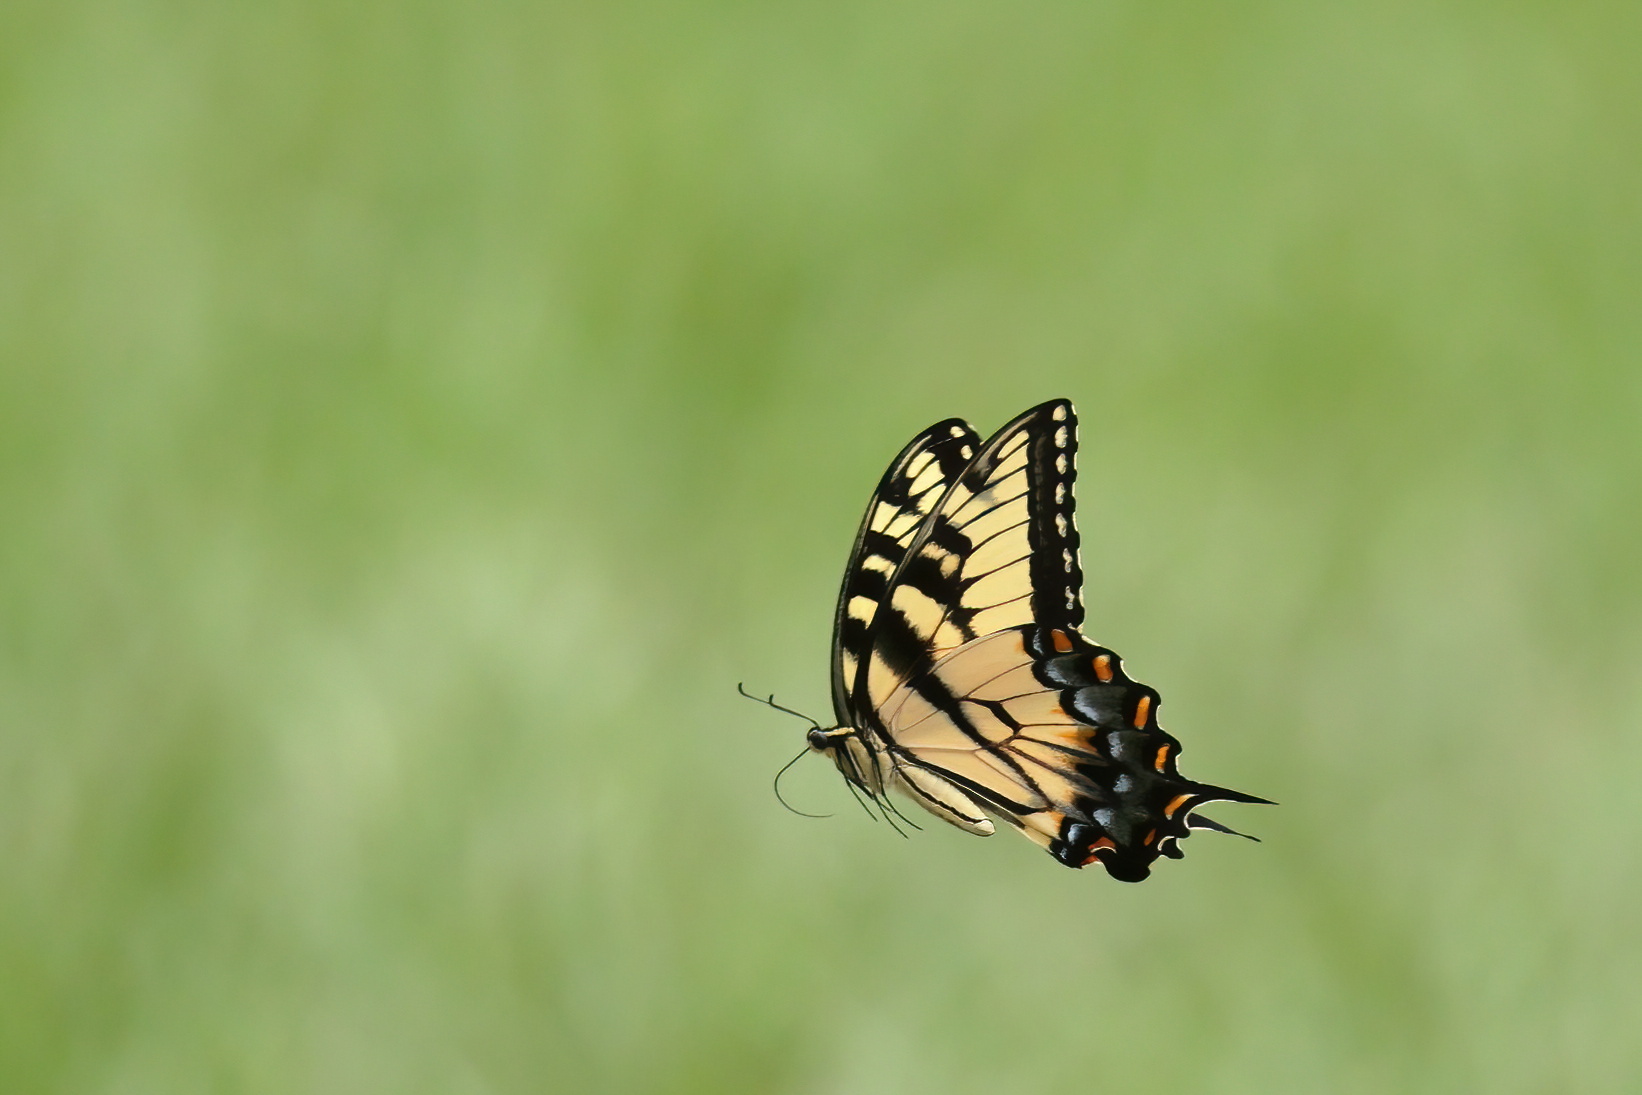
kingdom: Animalia
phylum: Arthropoda
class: Insecta
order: Lepidoptera
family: Papilionidae
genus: Papilio
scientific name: Papilio glaucus
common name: Tiger swallowtail
